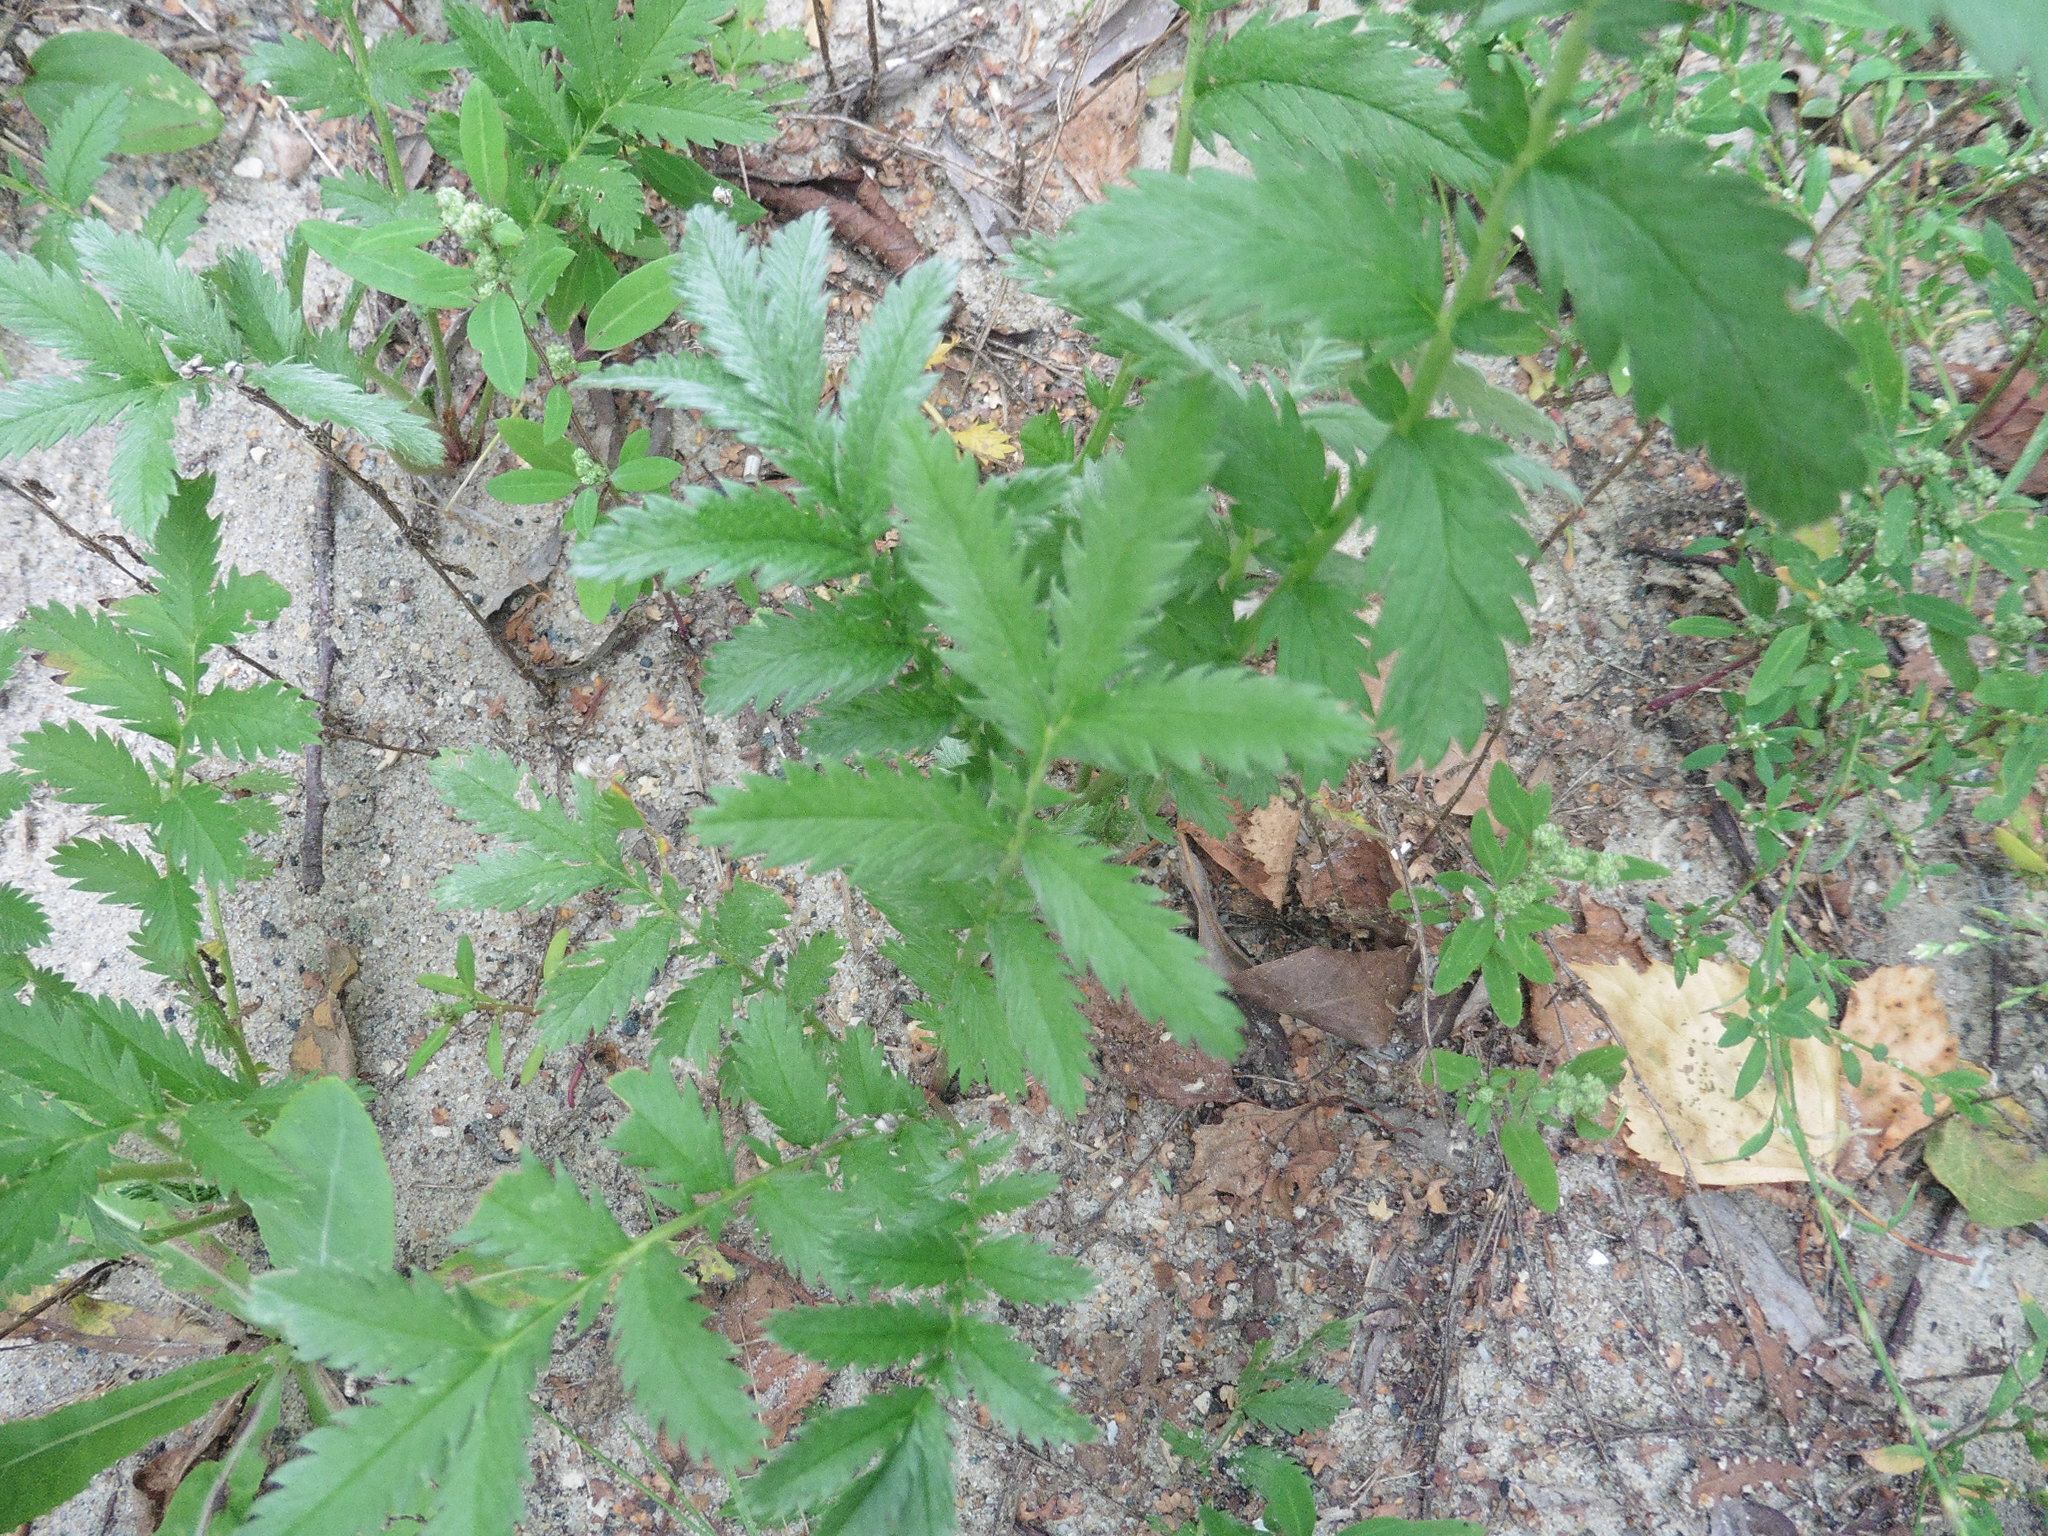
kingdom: Plantae
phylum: Tracheophyta
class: Magnoliopsida
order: Rosales
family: Rosaceae
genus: Argentina
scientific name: Argentina anserina
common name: Common silverweed
